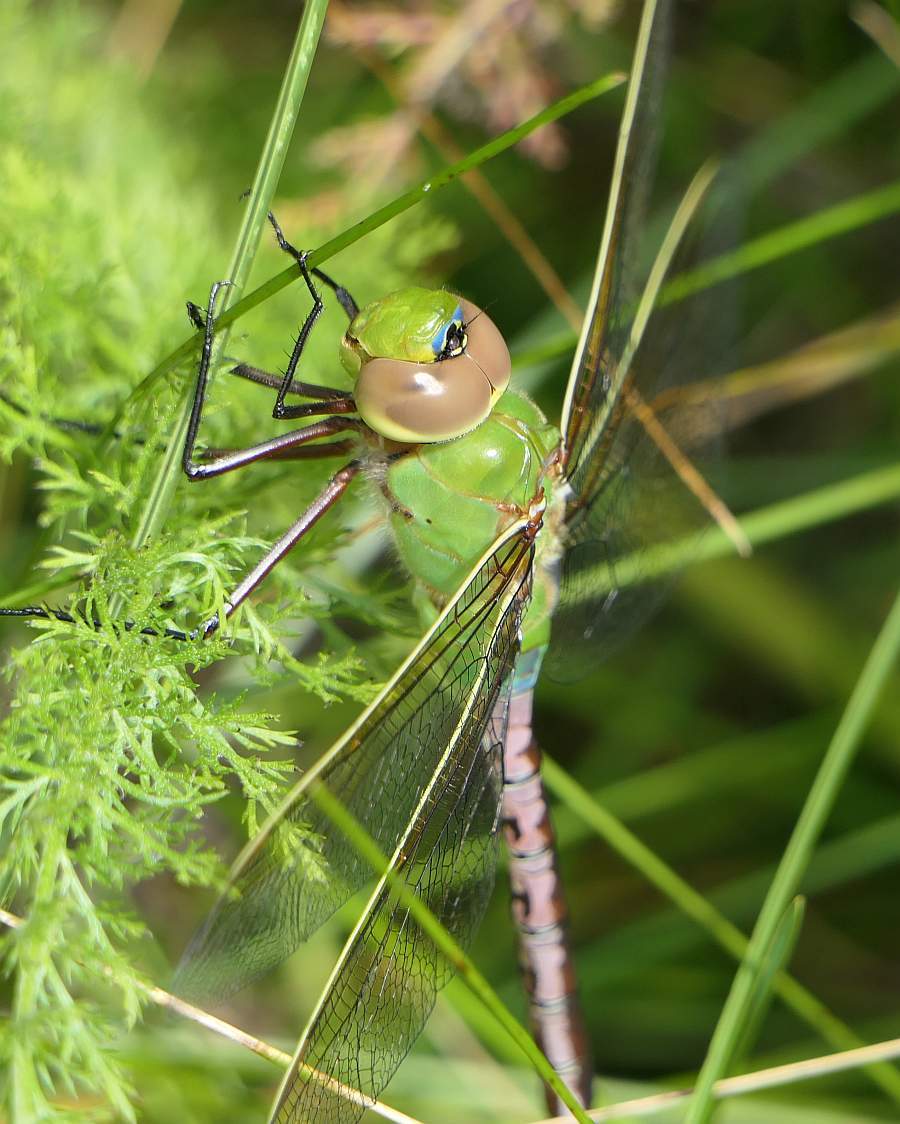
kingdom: Animalia
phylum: Arthropoda
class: Insecta
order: Odonata
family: Aeshnidae
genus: Anax
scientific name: Anax junius
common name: Common green darner
